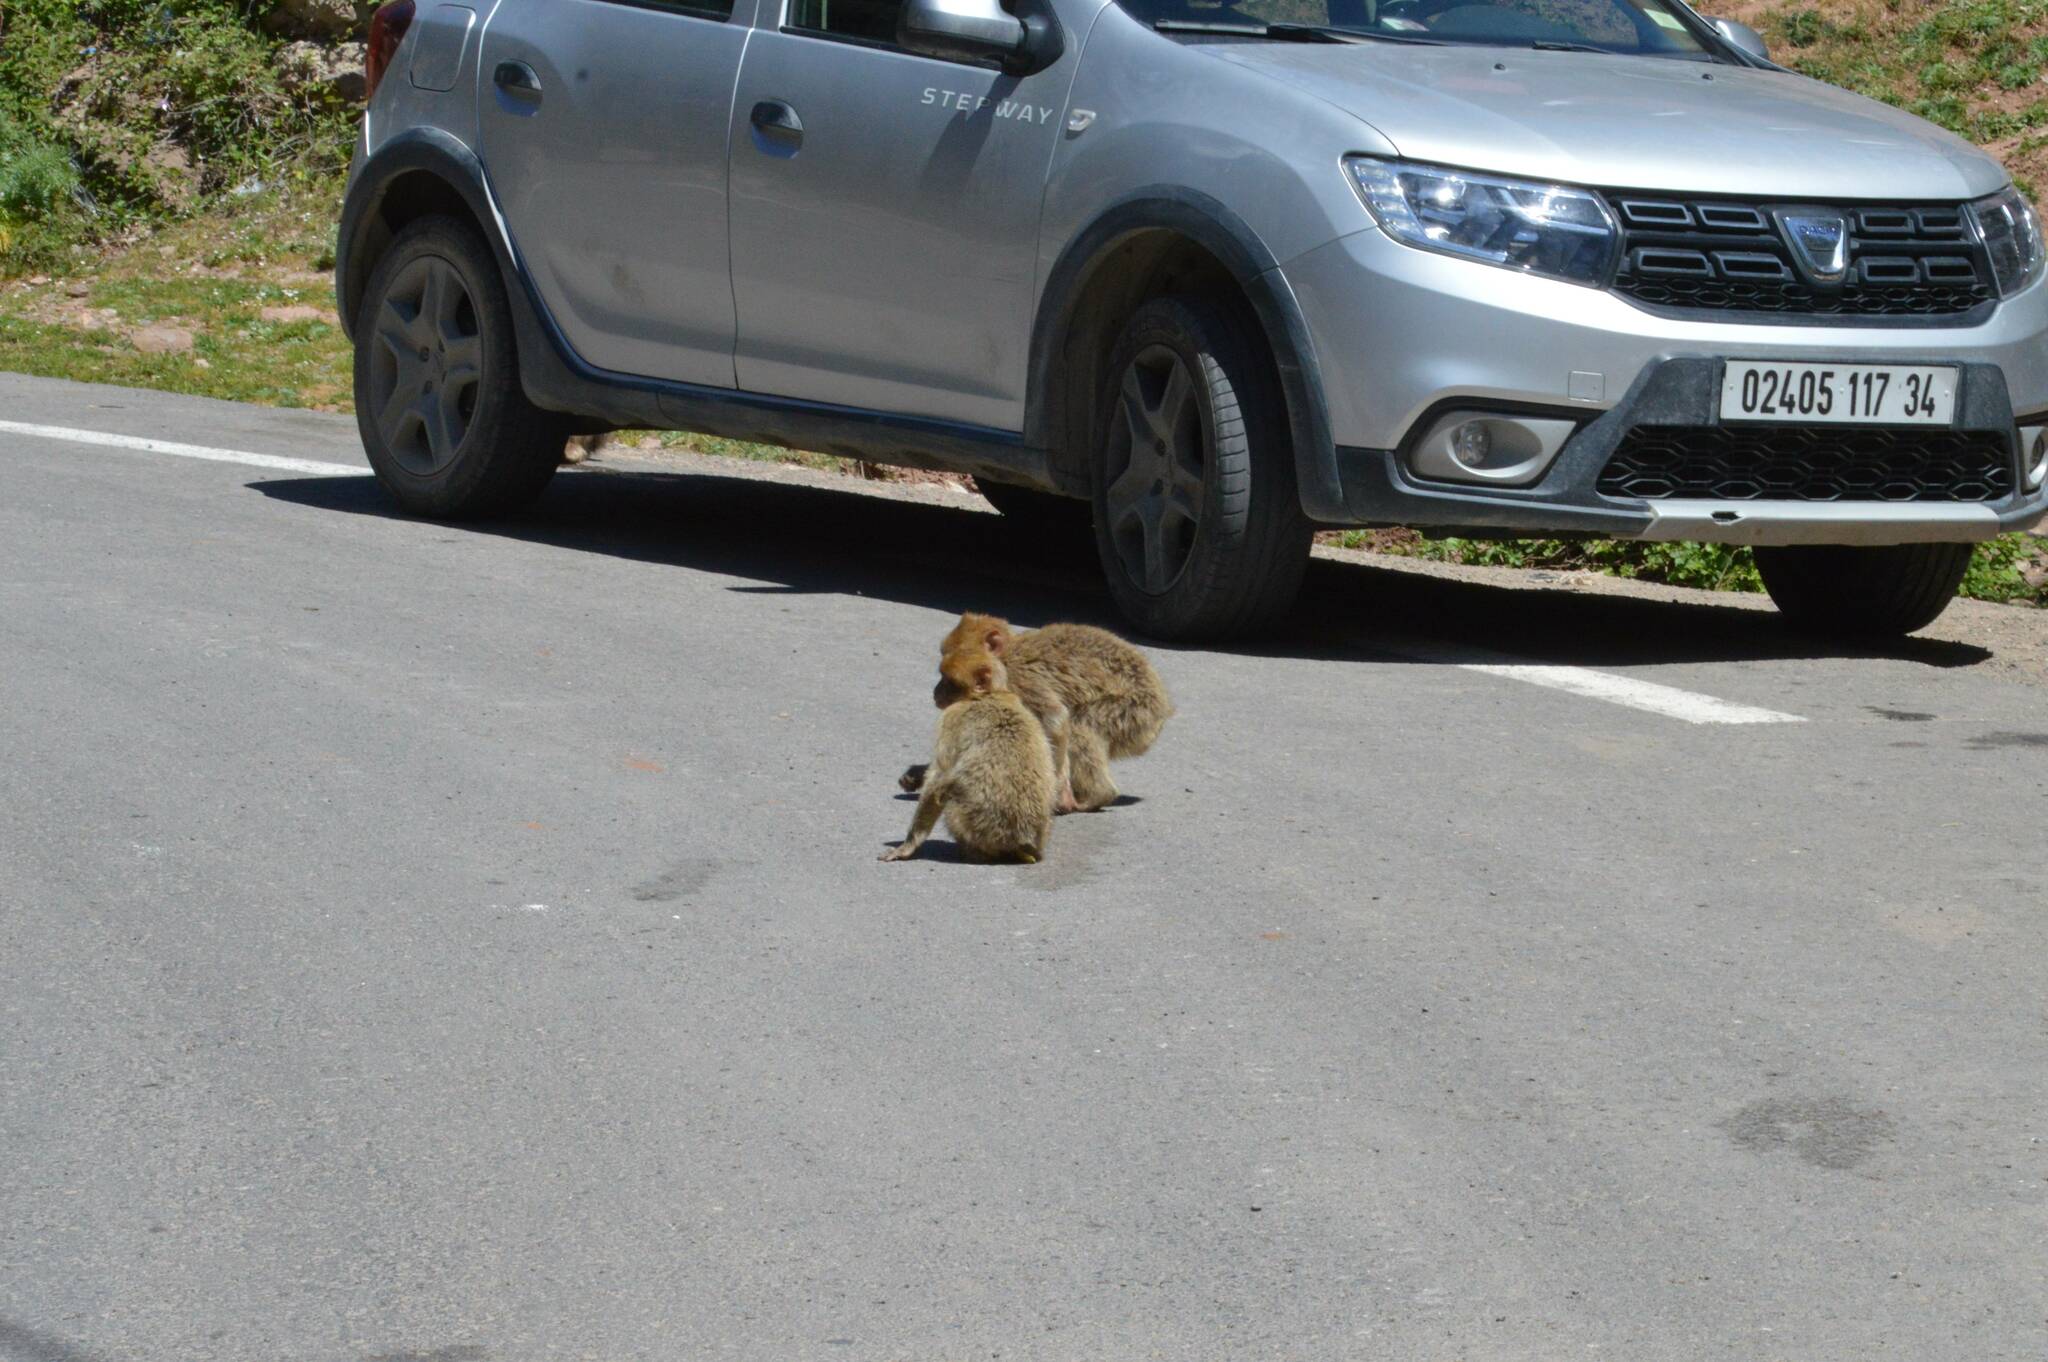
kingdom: Animalia
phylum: Chordata
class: Mammalia
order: Primates
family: Cercopithecidae
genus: Macaca
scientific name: Macaca sylvanus
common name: Barbary macaque
